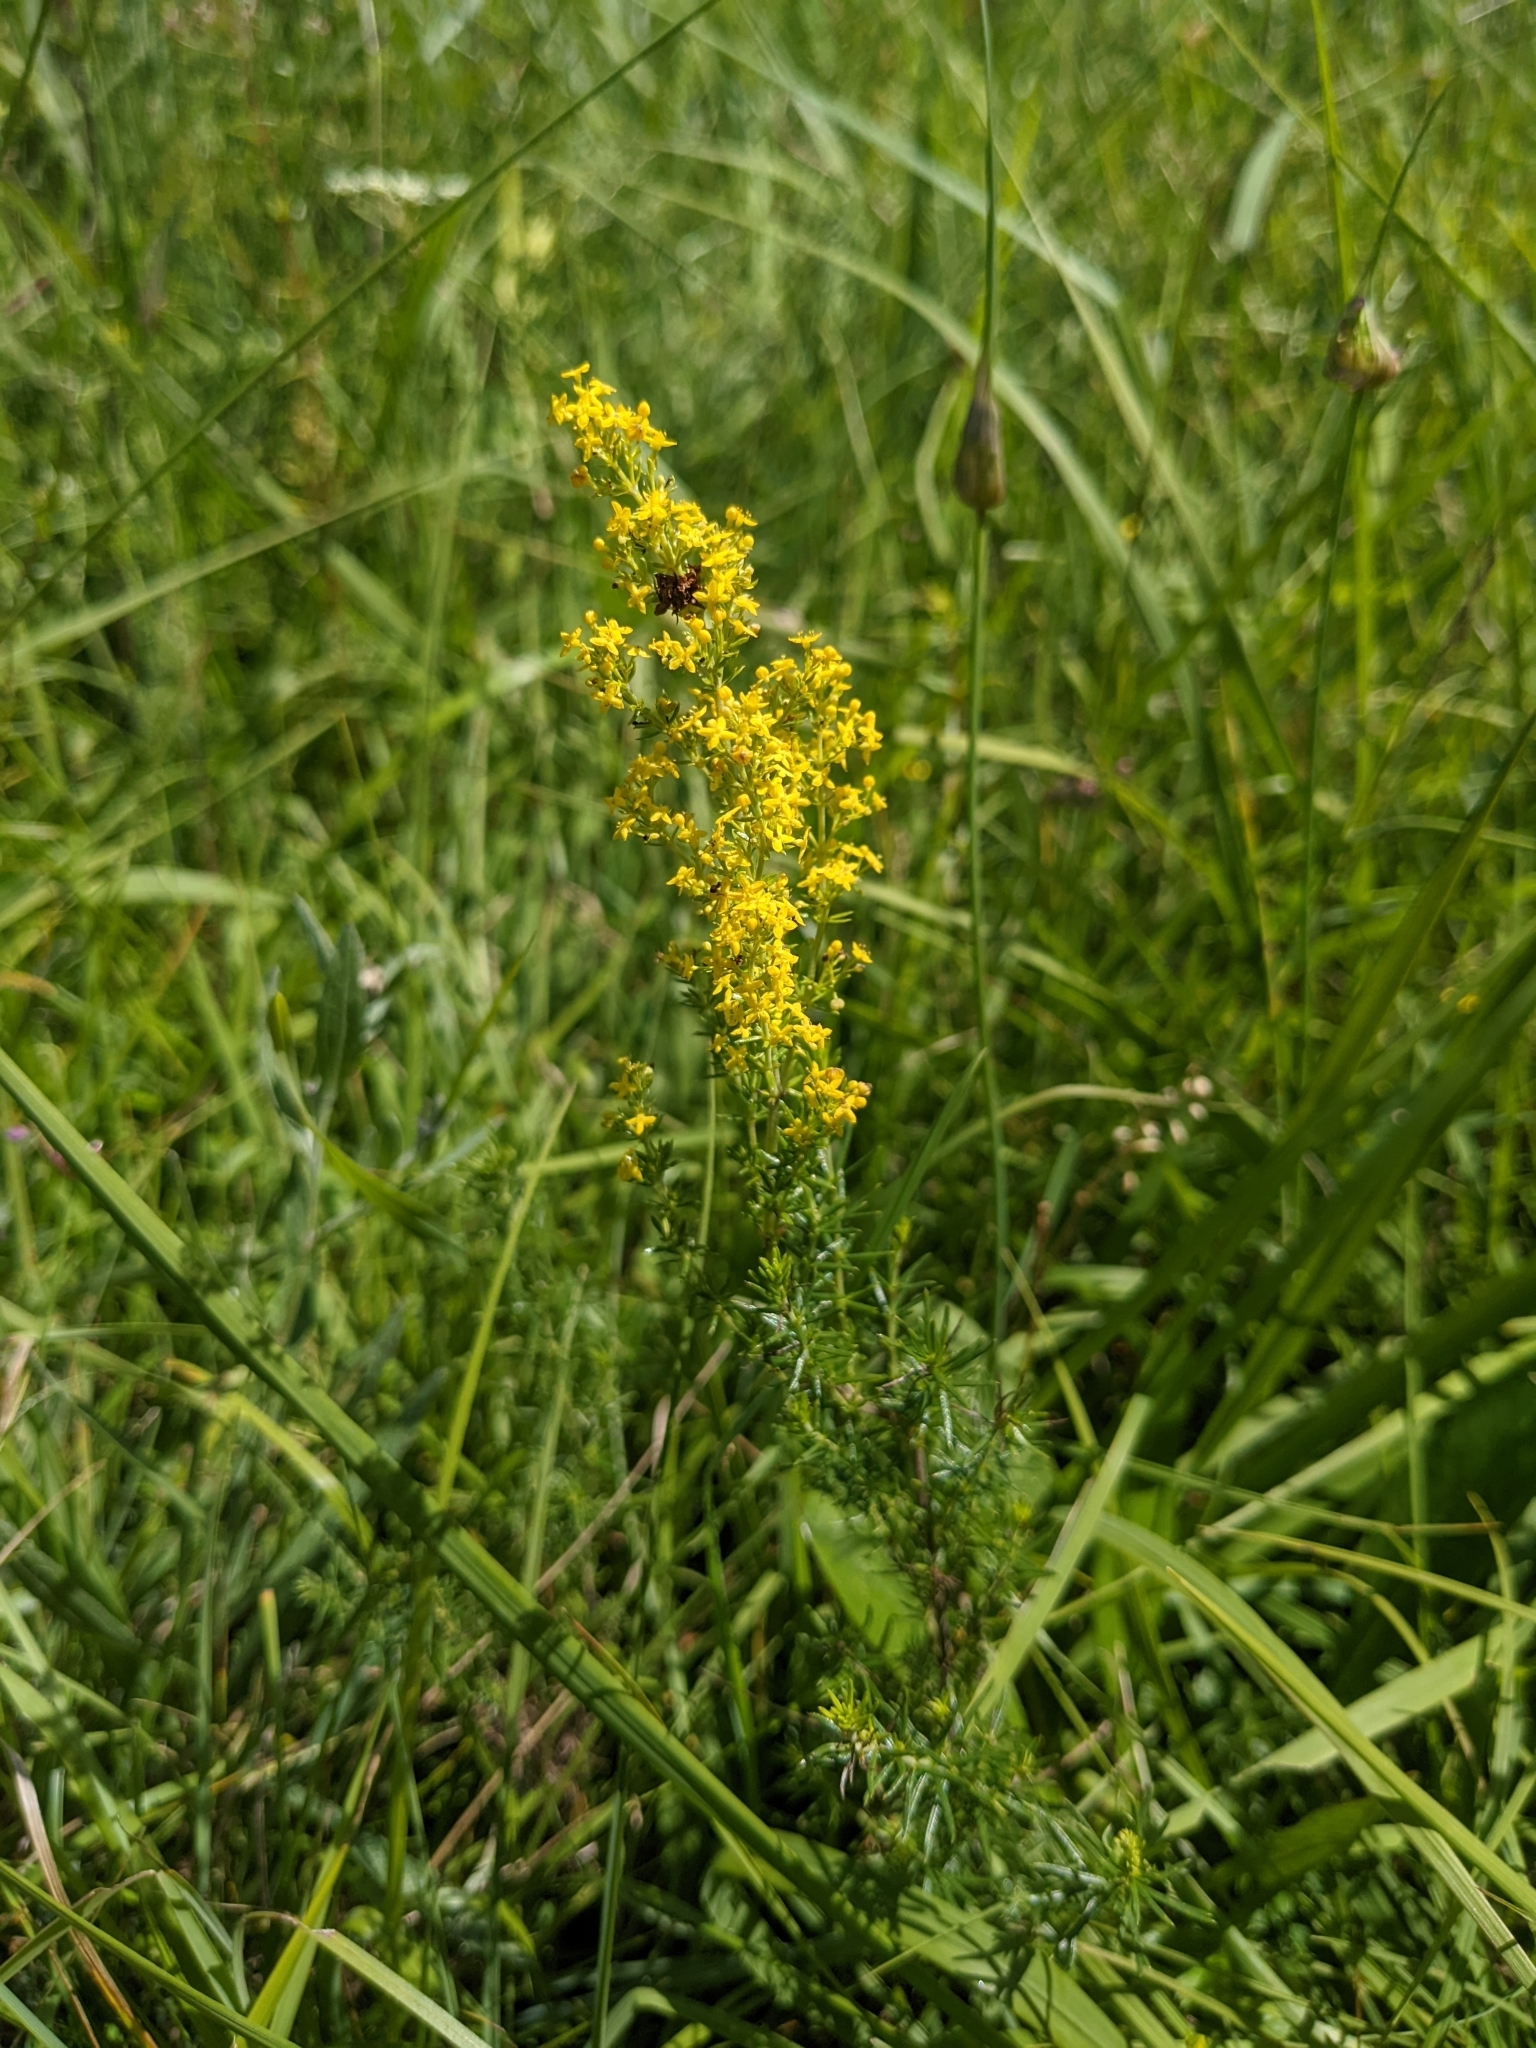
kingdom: Plantae
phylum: Tracheophyta
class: Magnoliopsida
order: Gentianales
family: Rubiaceae
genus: Galium
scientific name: Galium verum
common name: Lady's bedstraw
